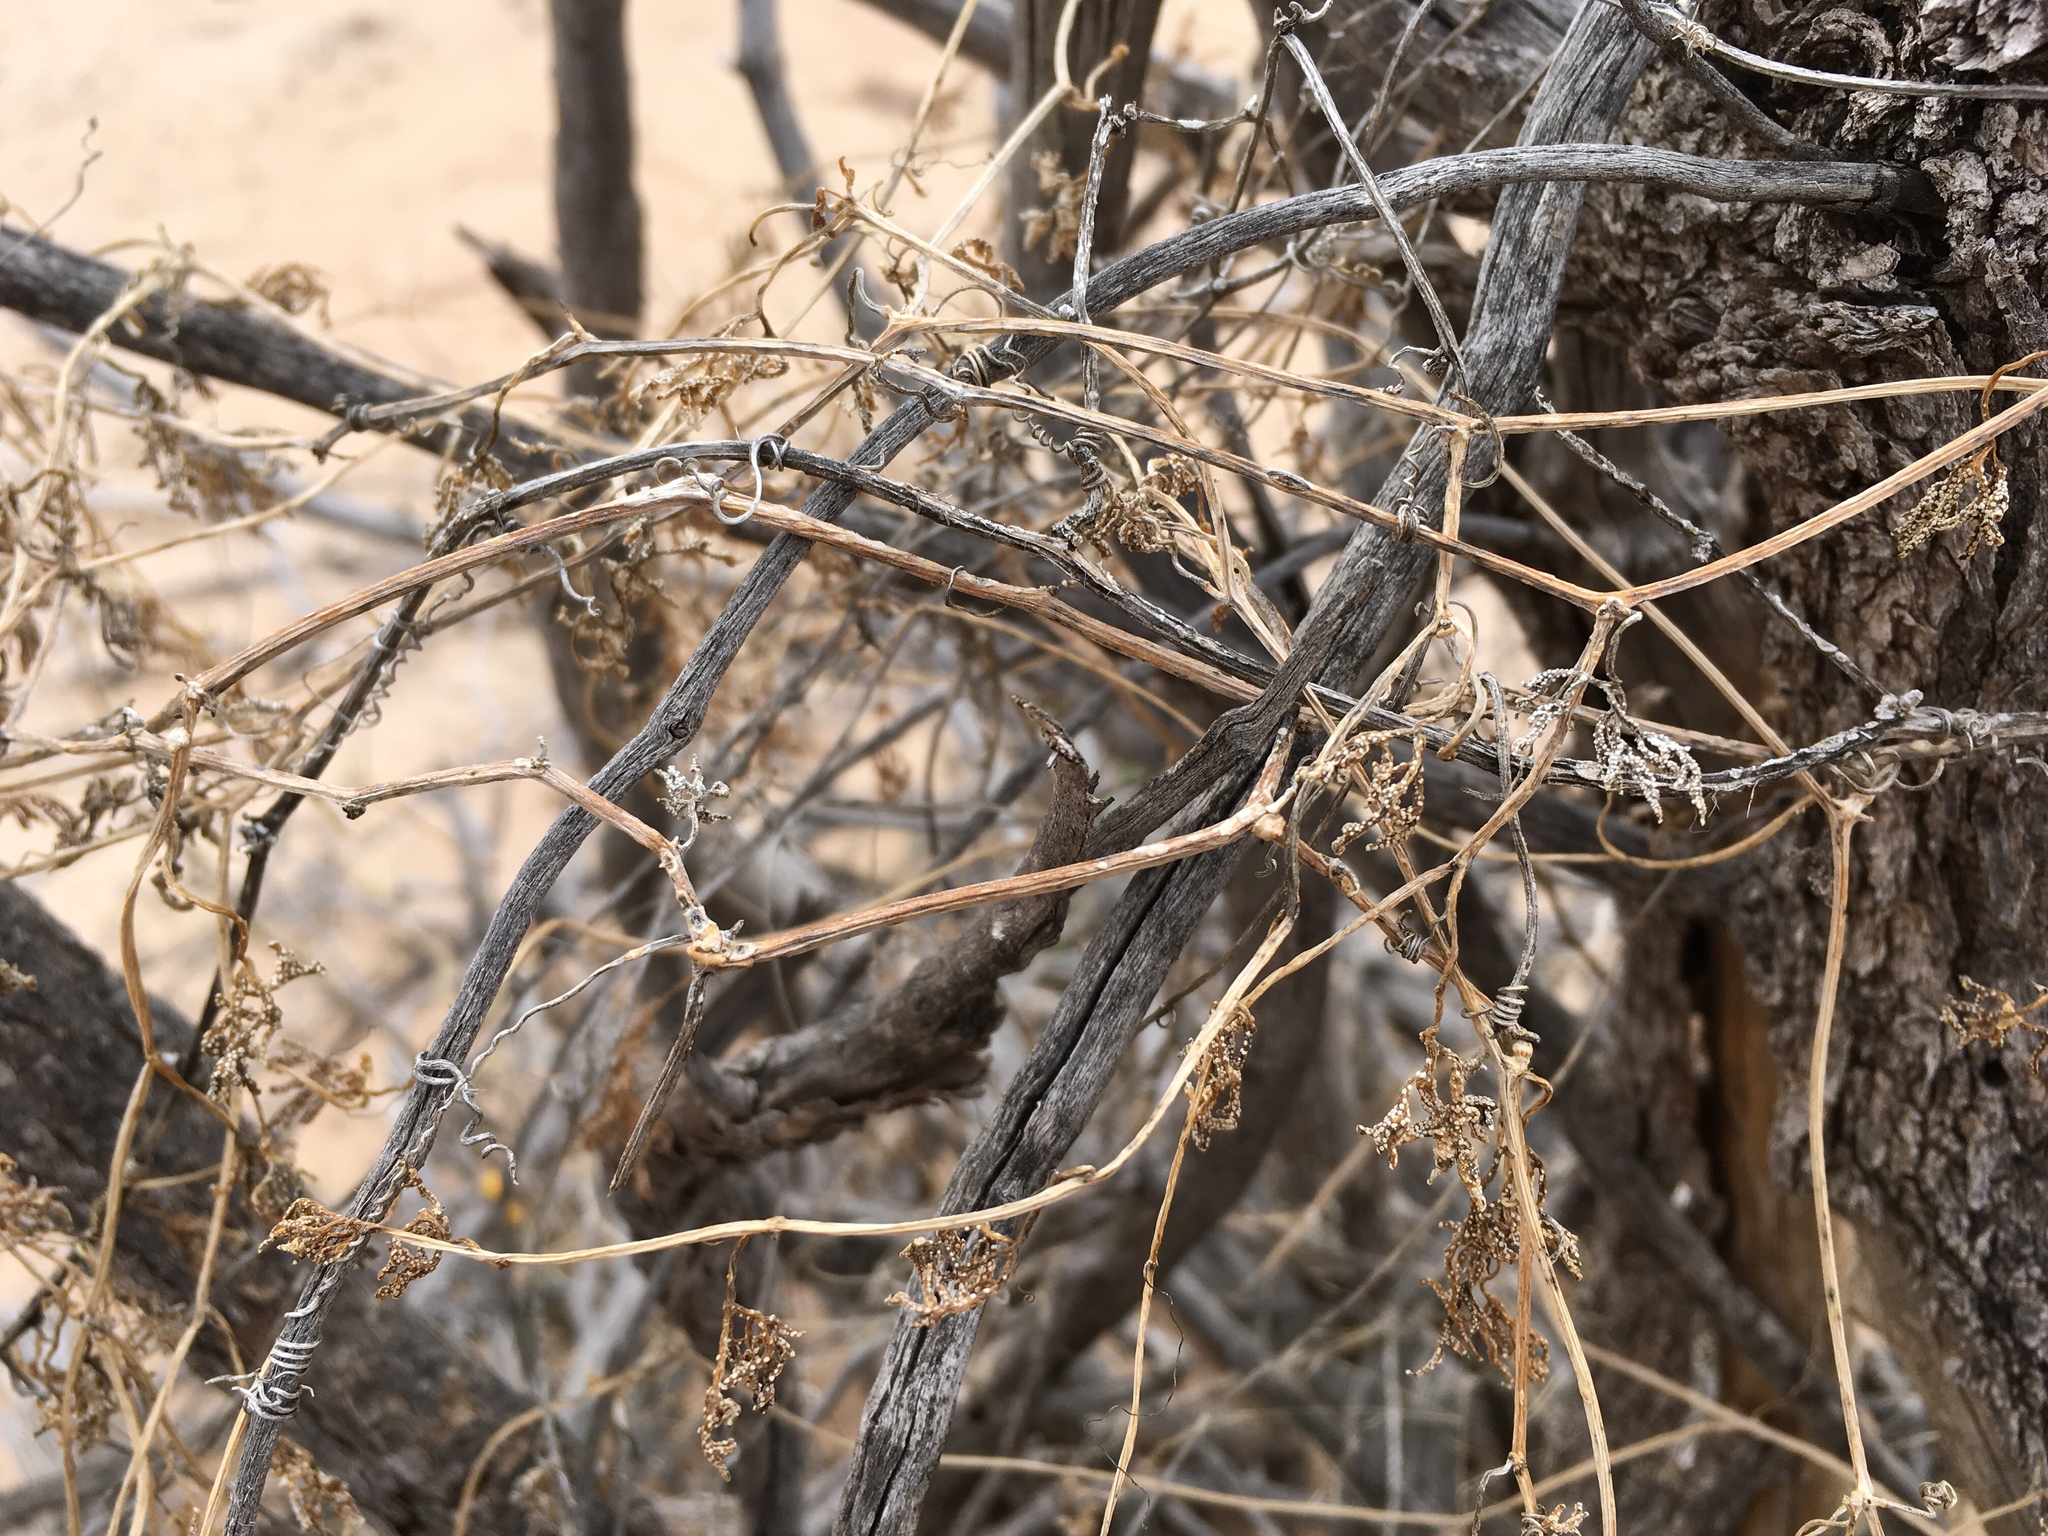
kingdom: Plantae
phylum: Tracheophyta
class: Magnoliopsida
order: Cucurbitales
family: Cucurbitaceae
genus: Ibervillea
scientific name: Ibervillea tenuisecta
